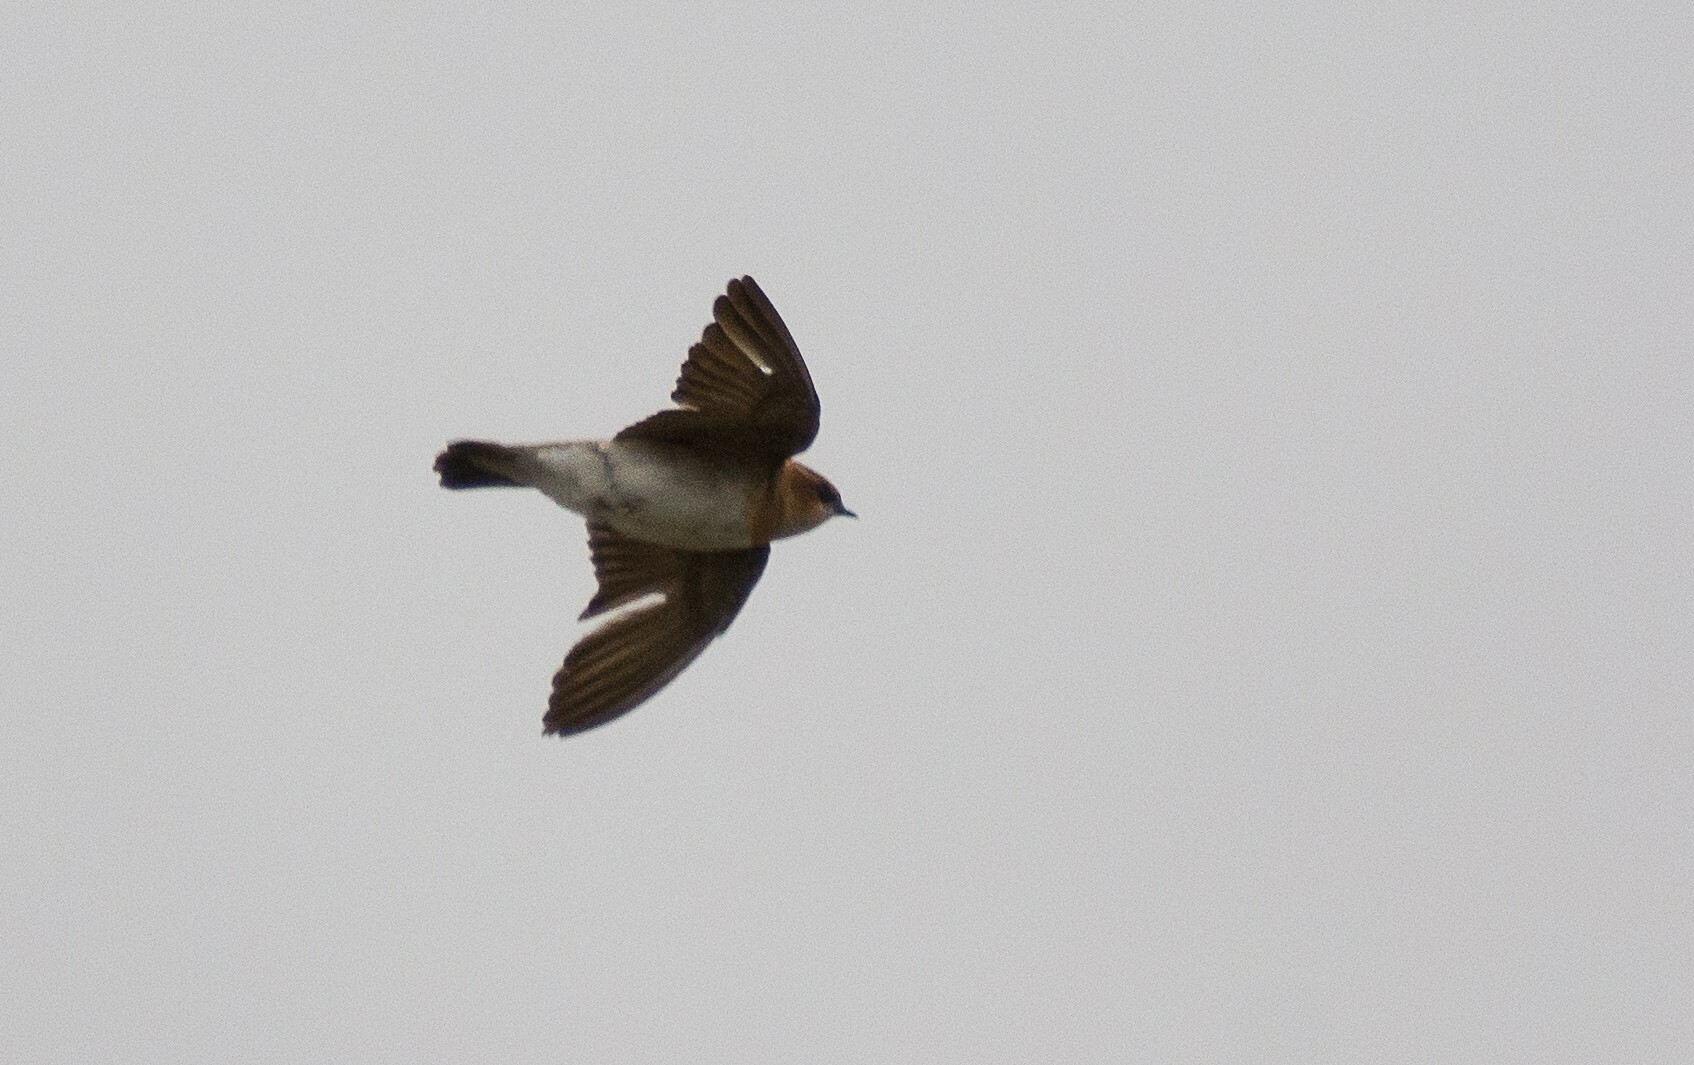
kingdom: Animalia
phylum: Chordata
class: Aves
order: Passeriformes
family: Hirundinidae
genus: Alopochelidon
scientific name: Alopochelidon fucata
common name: Tawny-headed swallow
